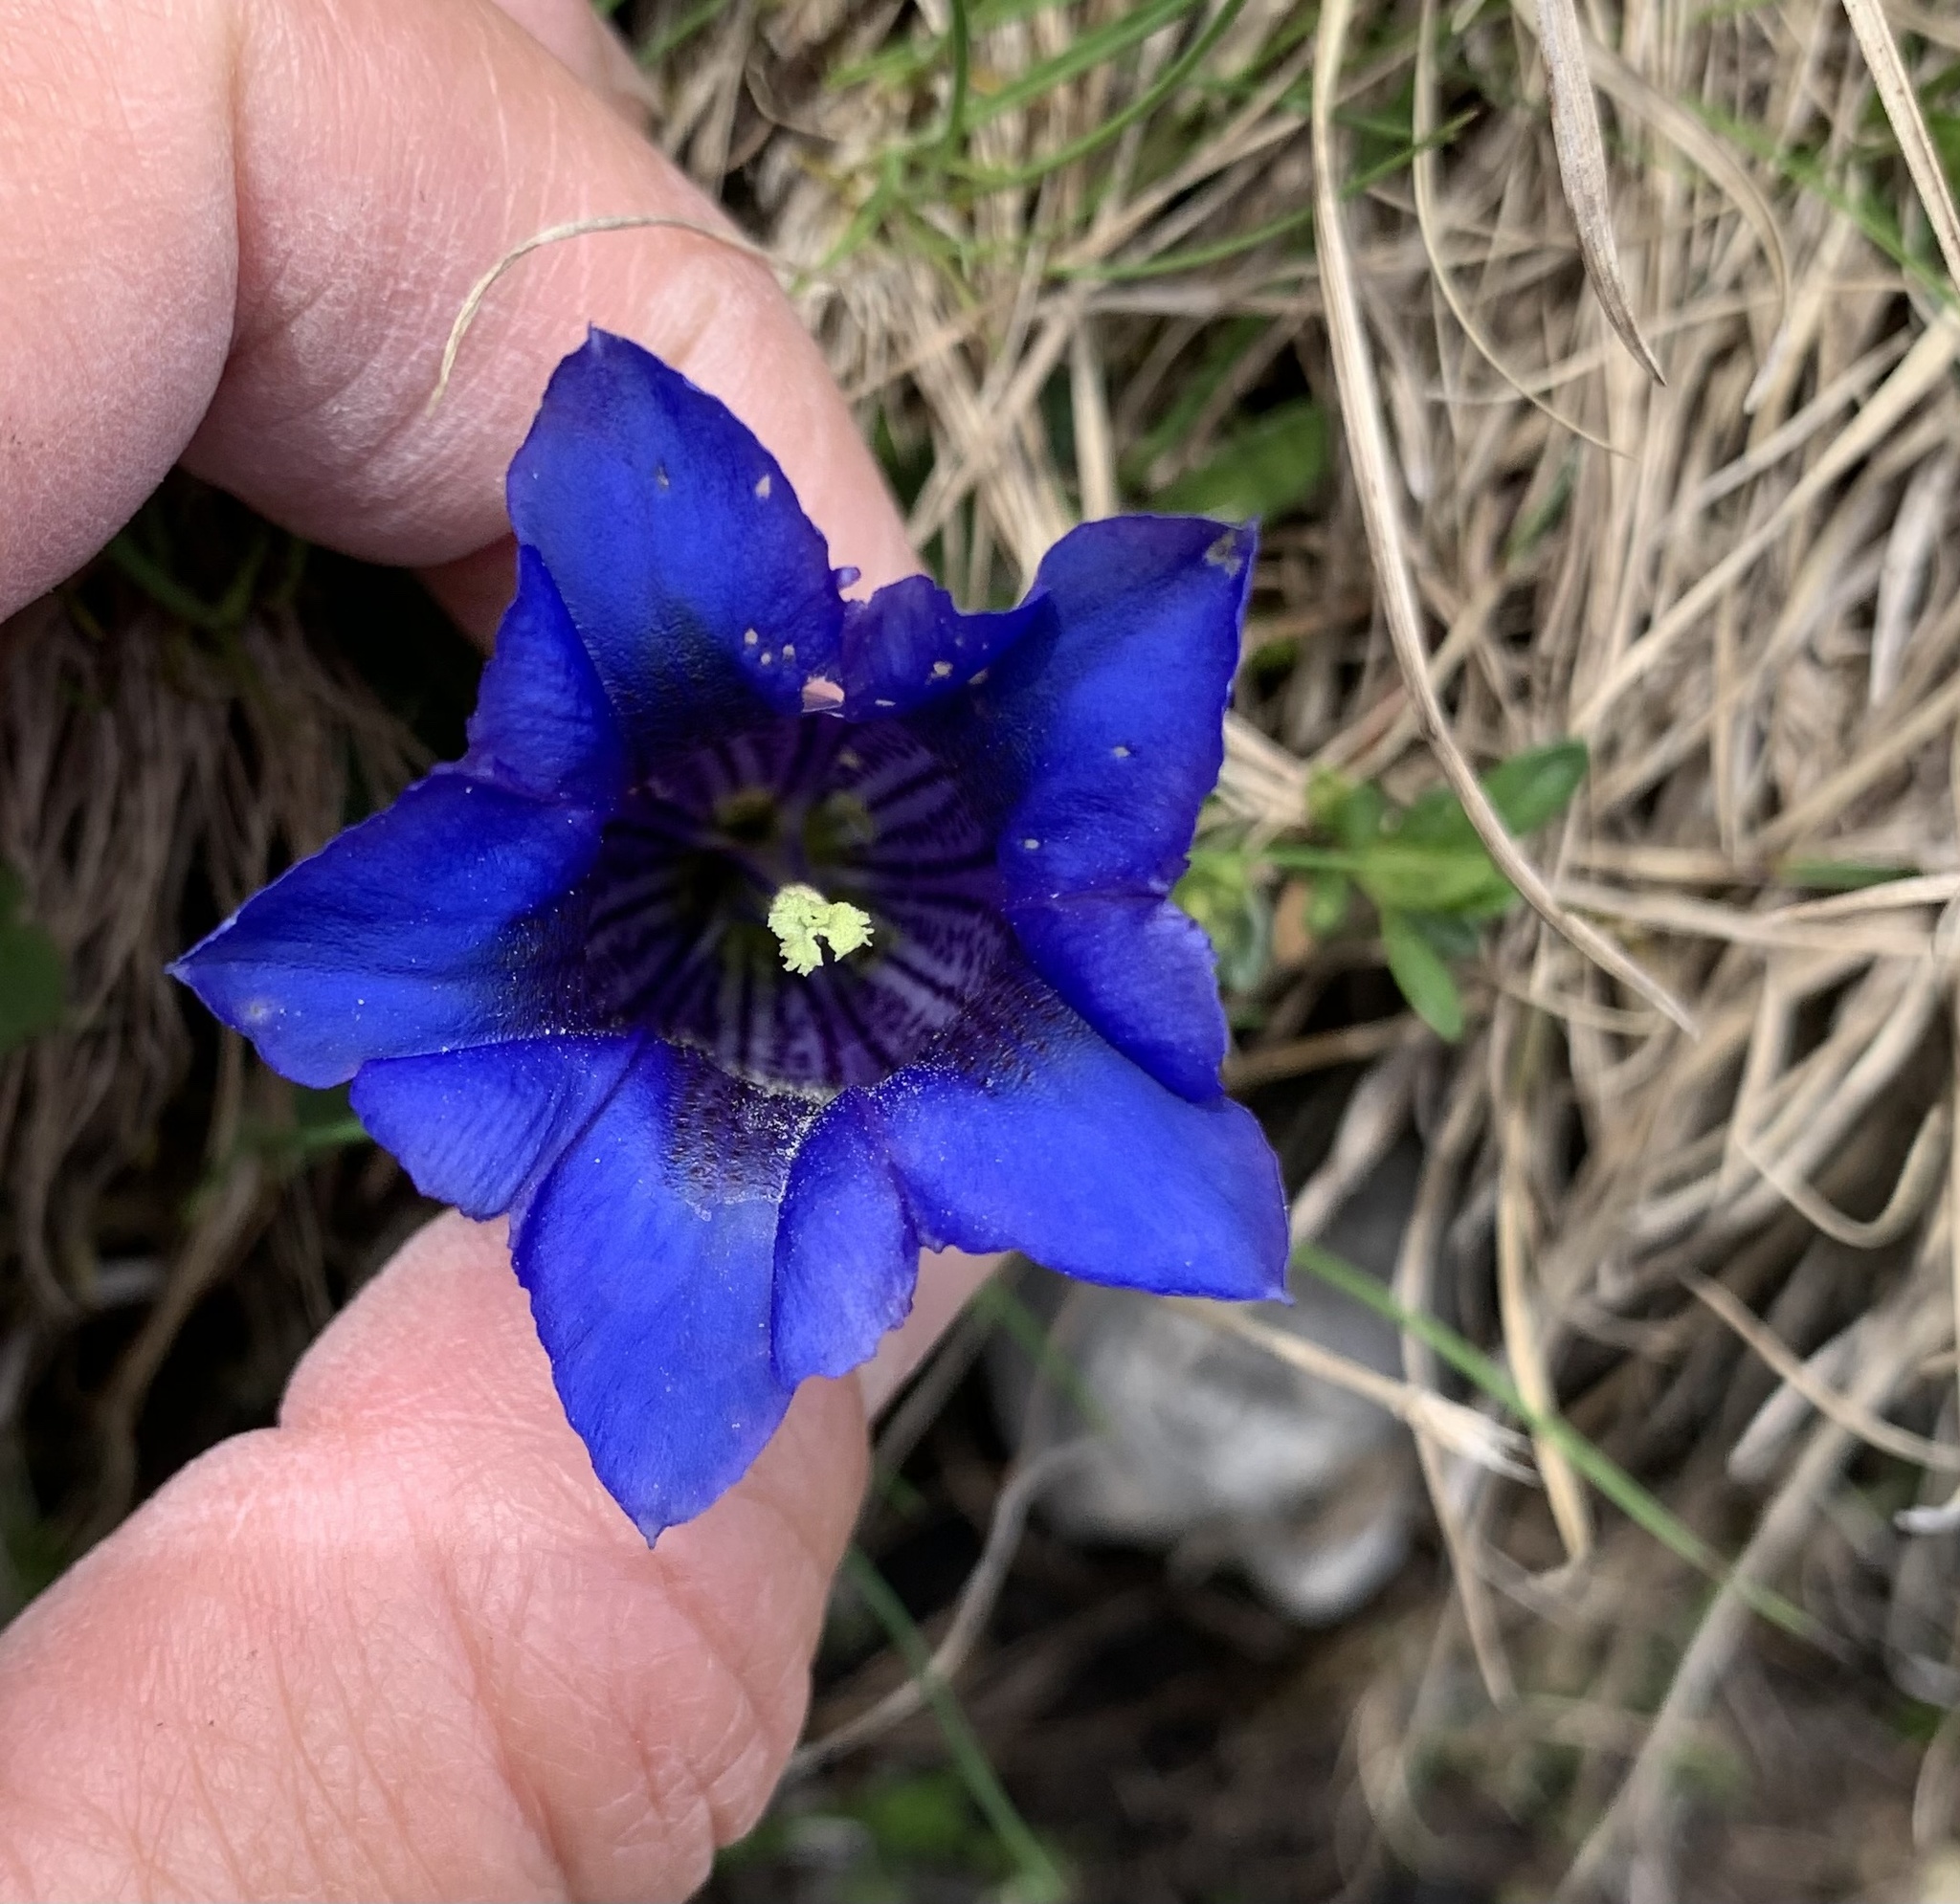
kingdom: Plantae
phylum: Tracheophyta
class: Magnoliopsida
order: Gentianales
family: Gentianaceae
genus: Gentiana
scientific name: Gentiana clusii
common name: Trumpet gentian
